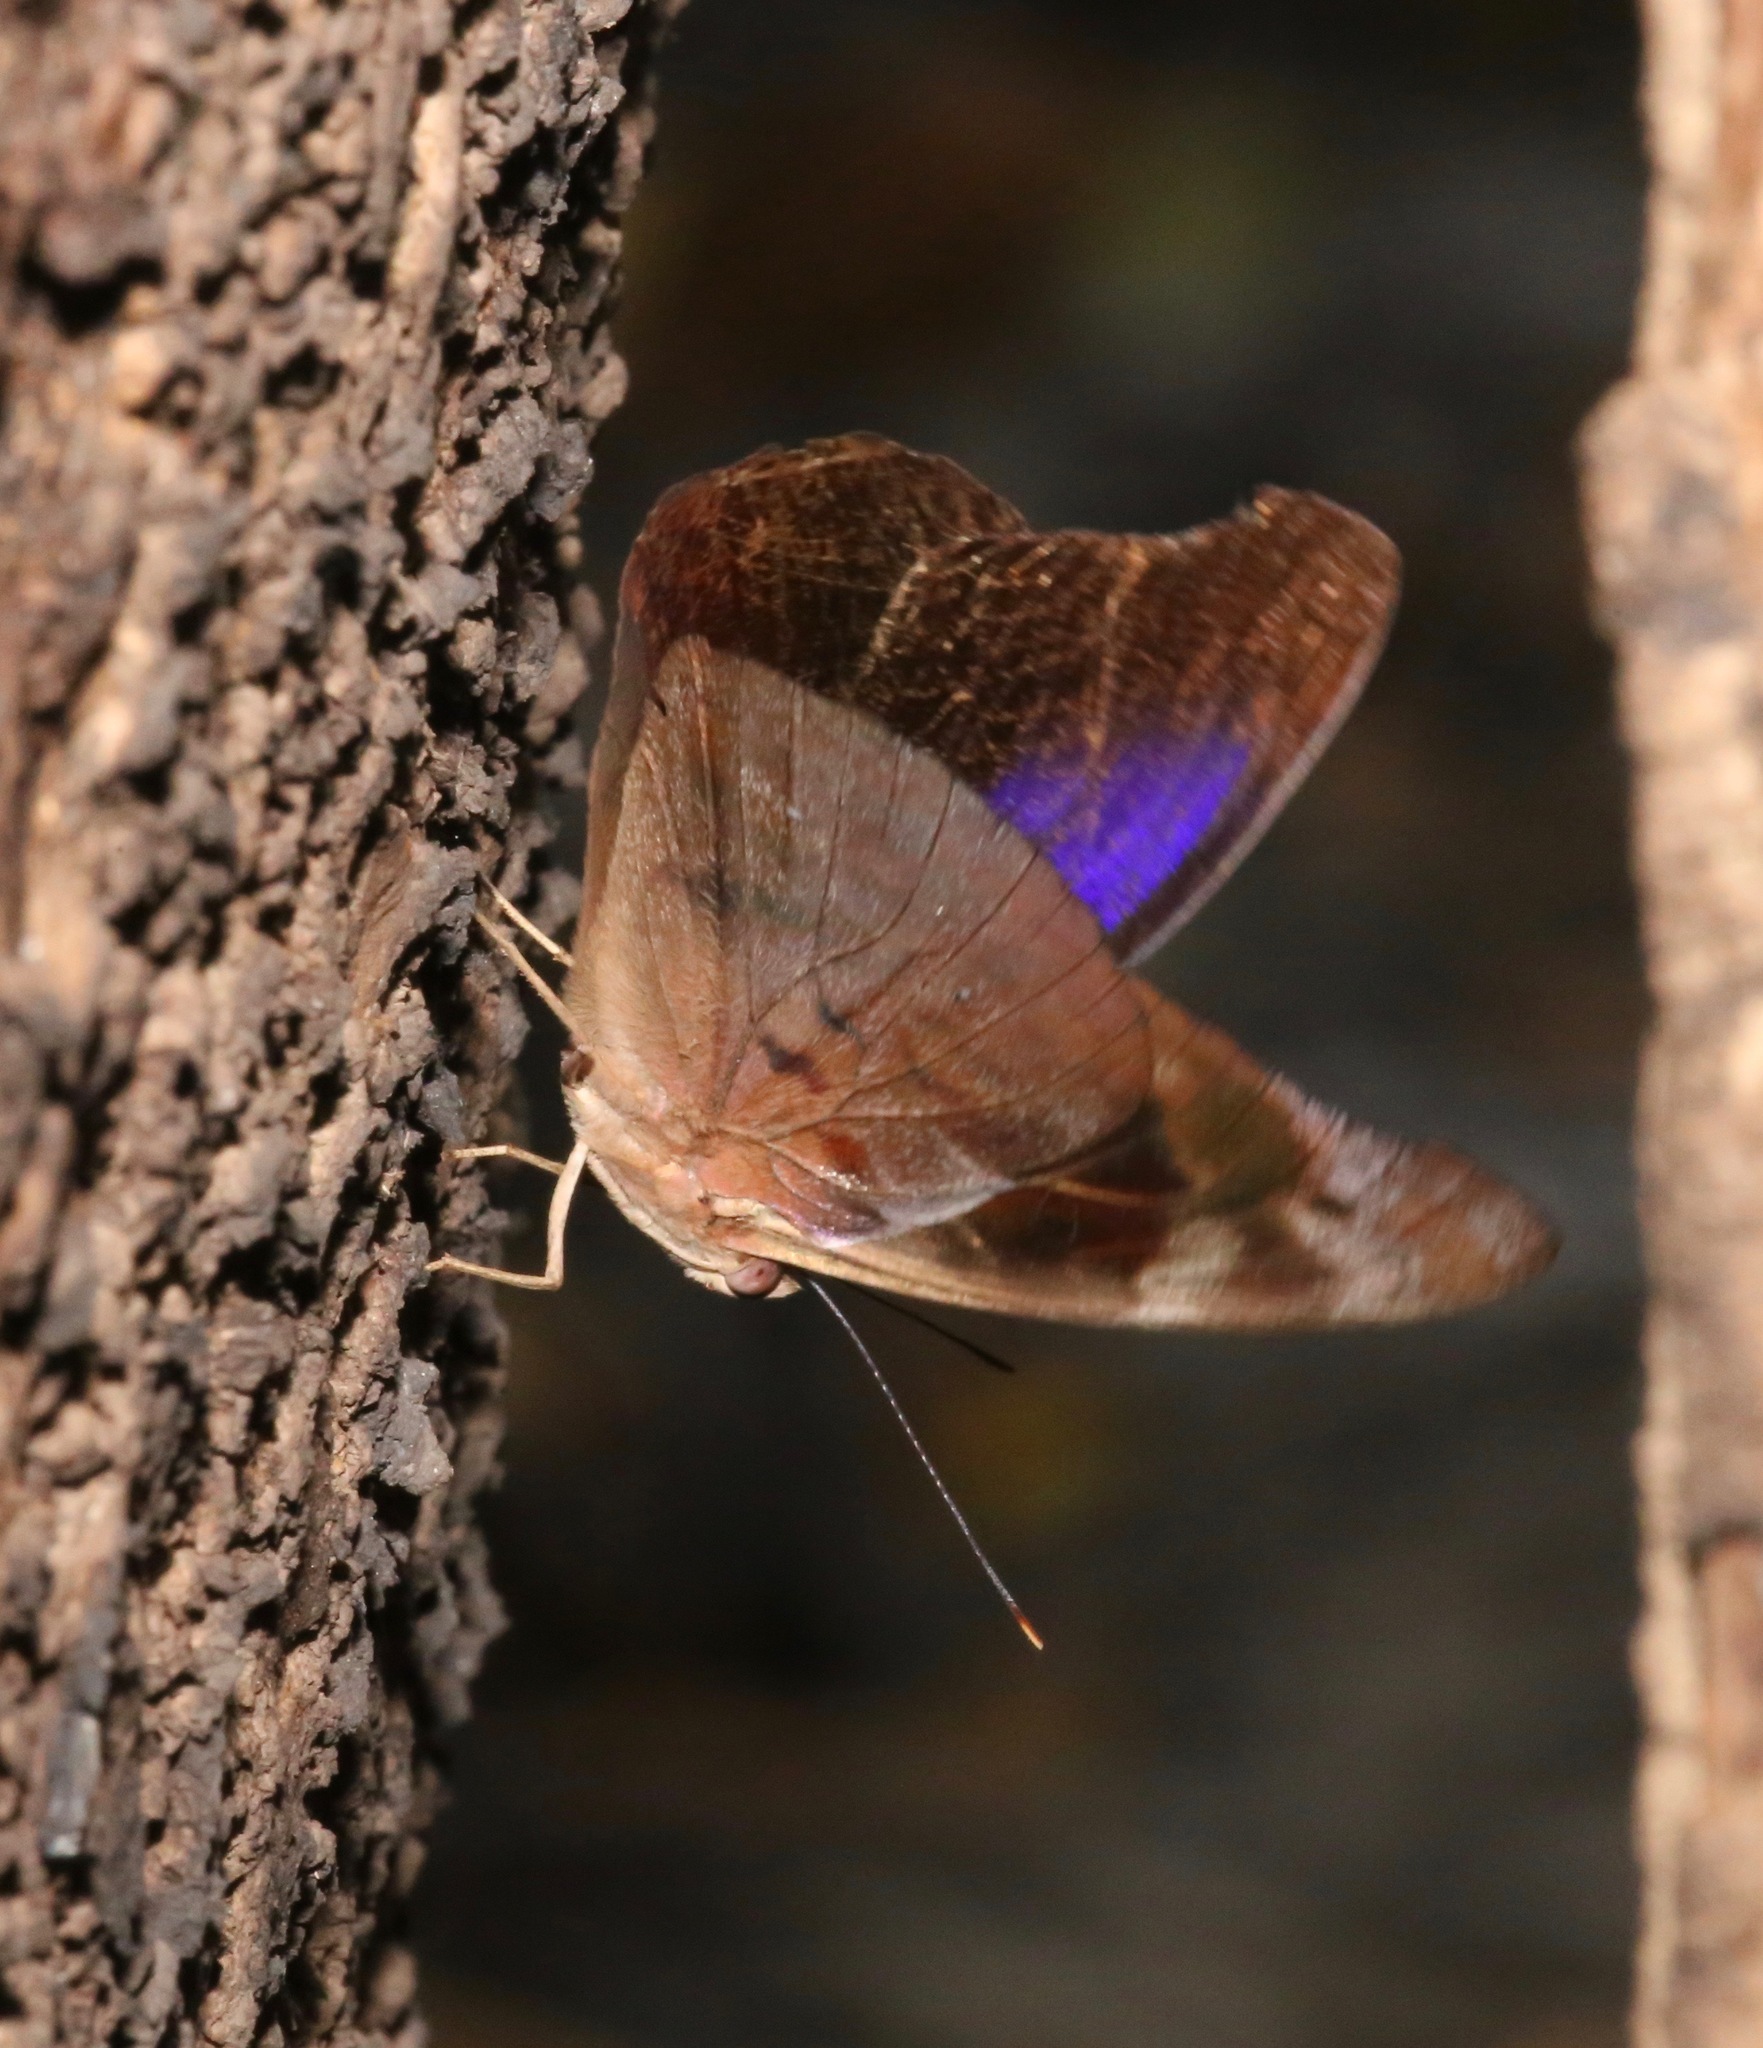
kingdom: Animalia
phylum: Arthropoda
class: Insecta
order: Lepidoptera
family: Nymphalidae
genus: Eunica
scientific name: Eunica sydonia
